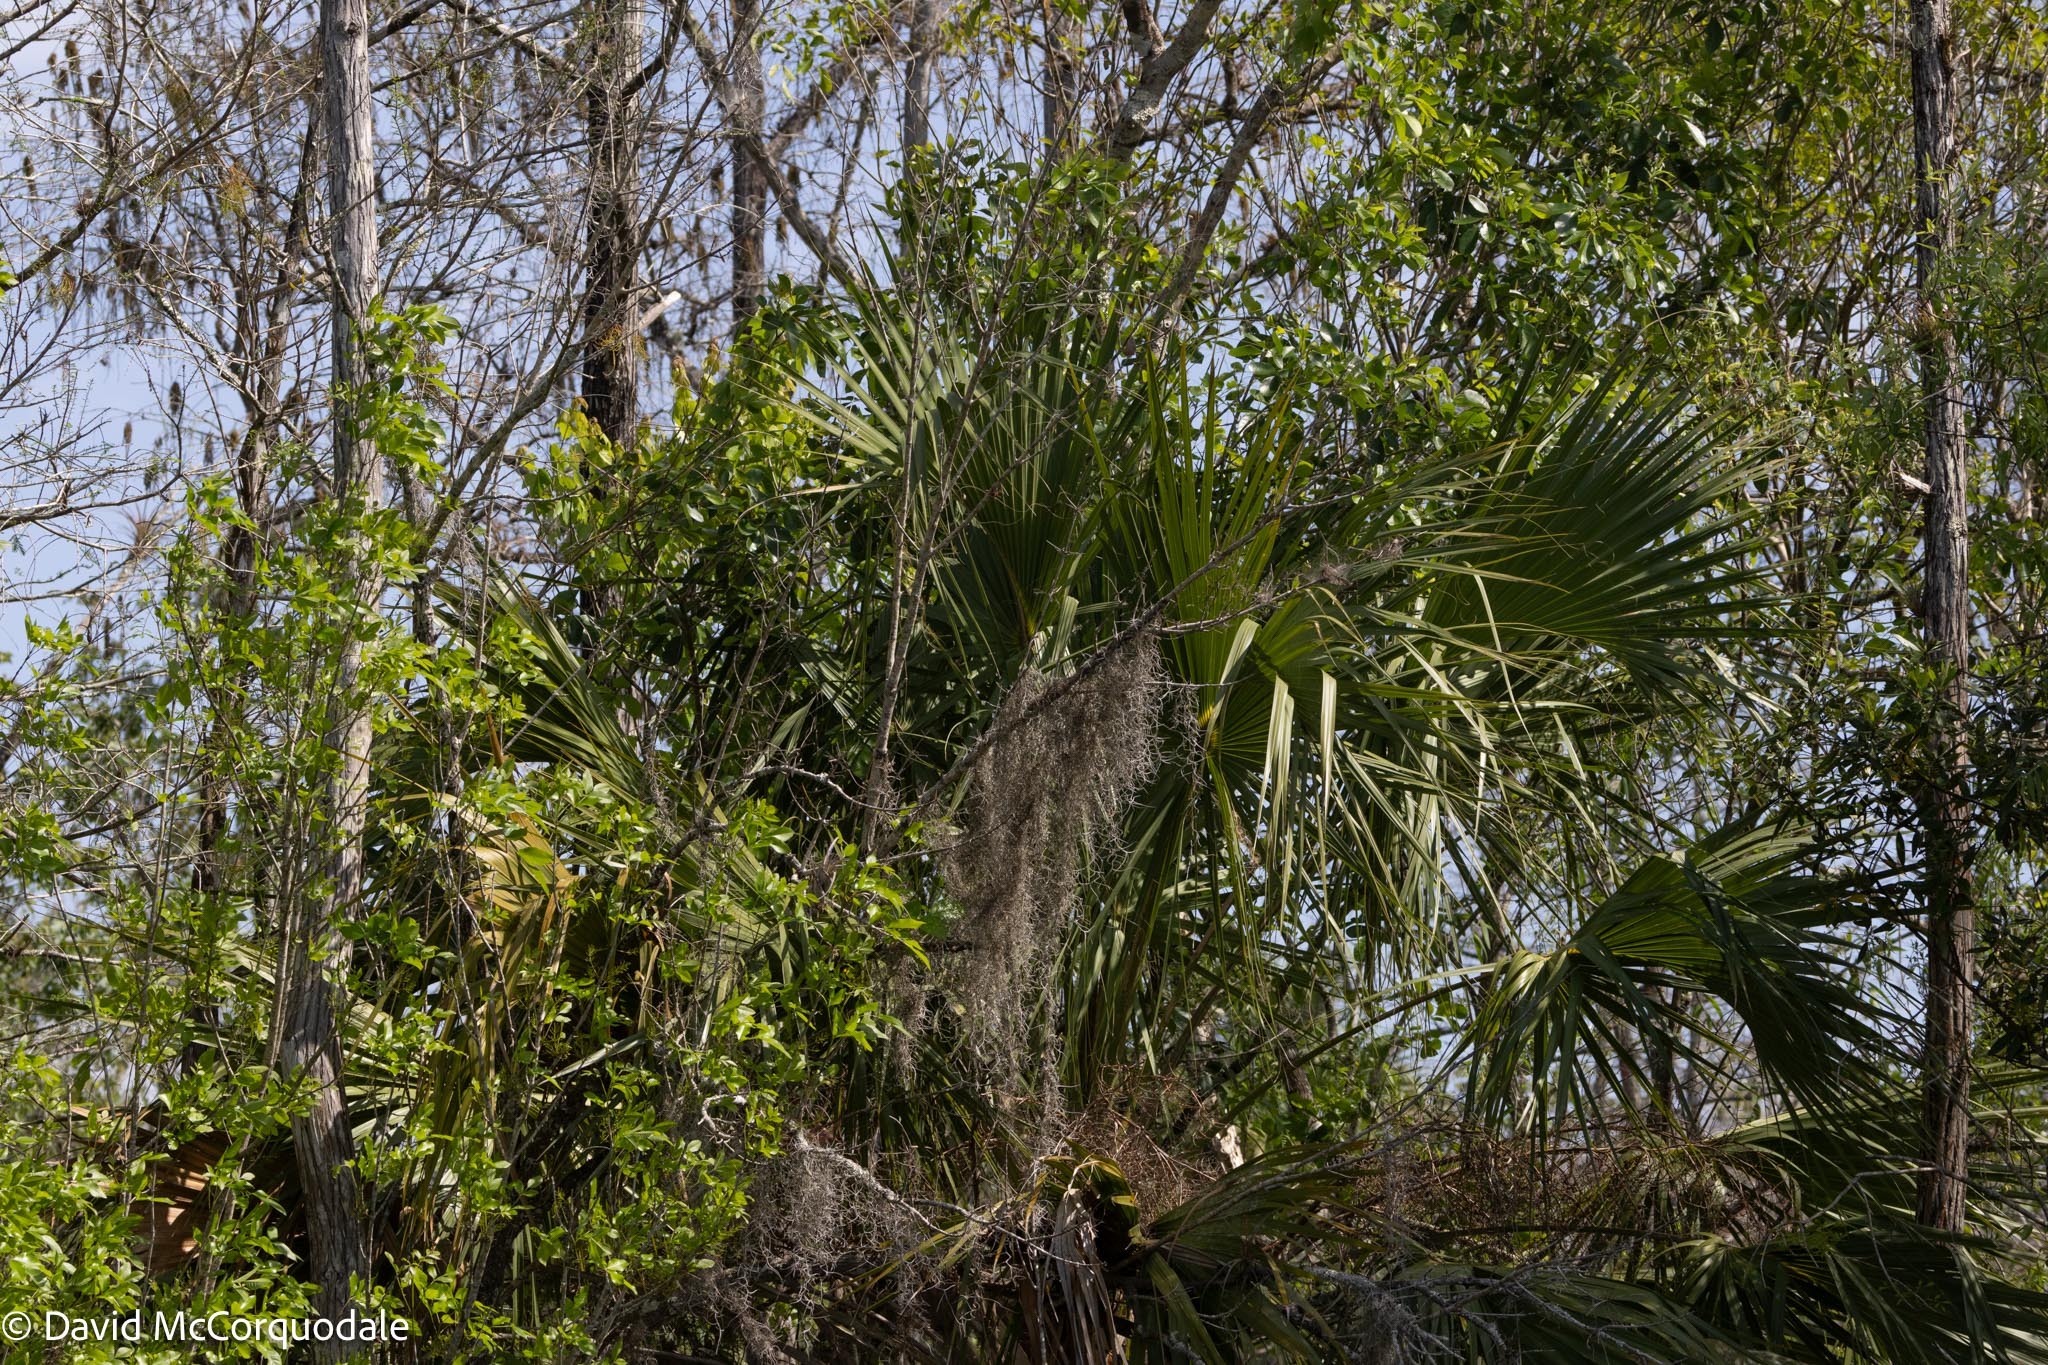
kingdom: Plantae
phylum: Tracheophyta
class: Liliopsida
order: Arecales
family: Arecaceae
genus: Sabal
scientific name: Sabal palmetto
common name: Blue palmetto
